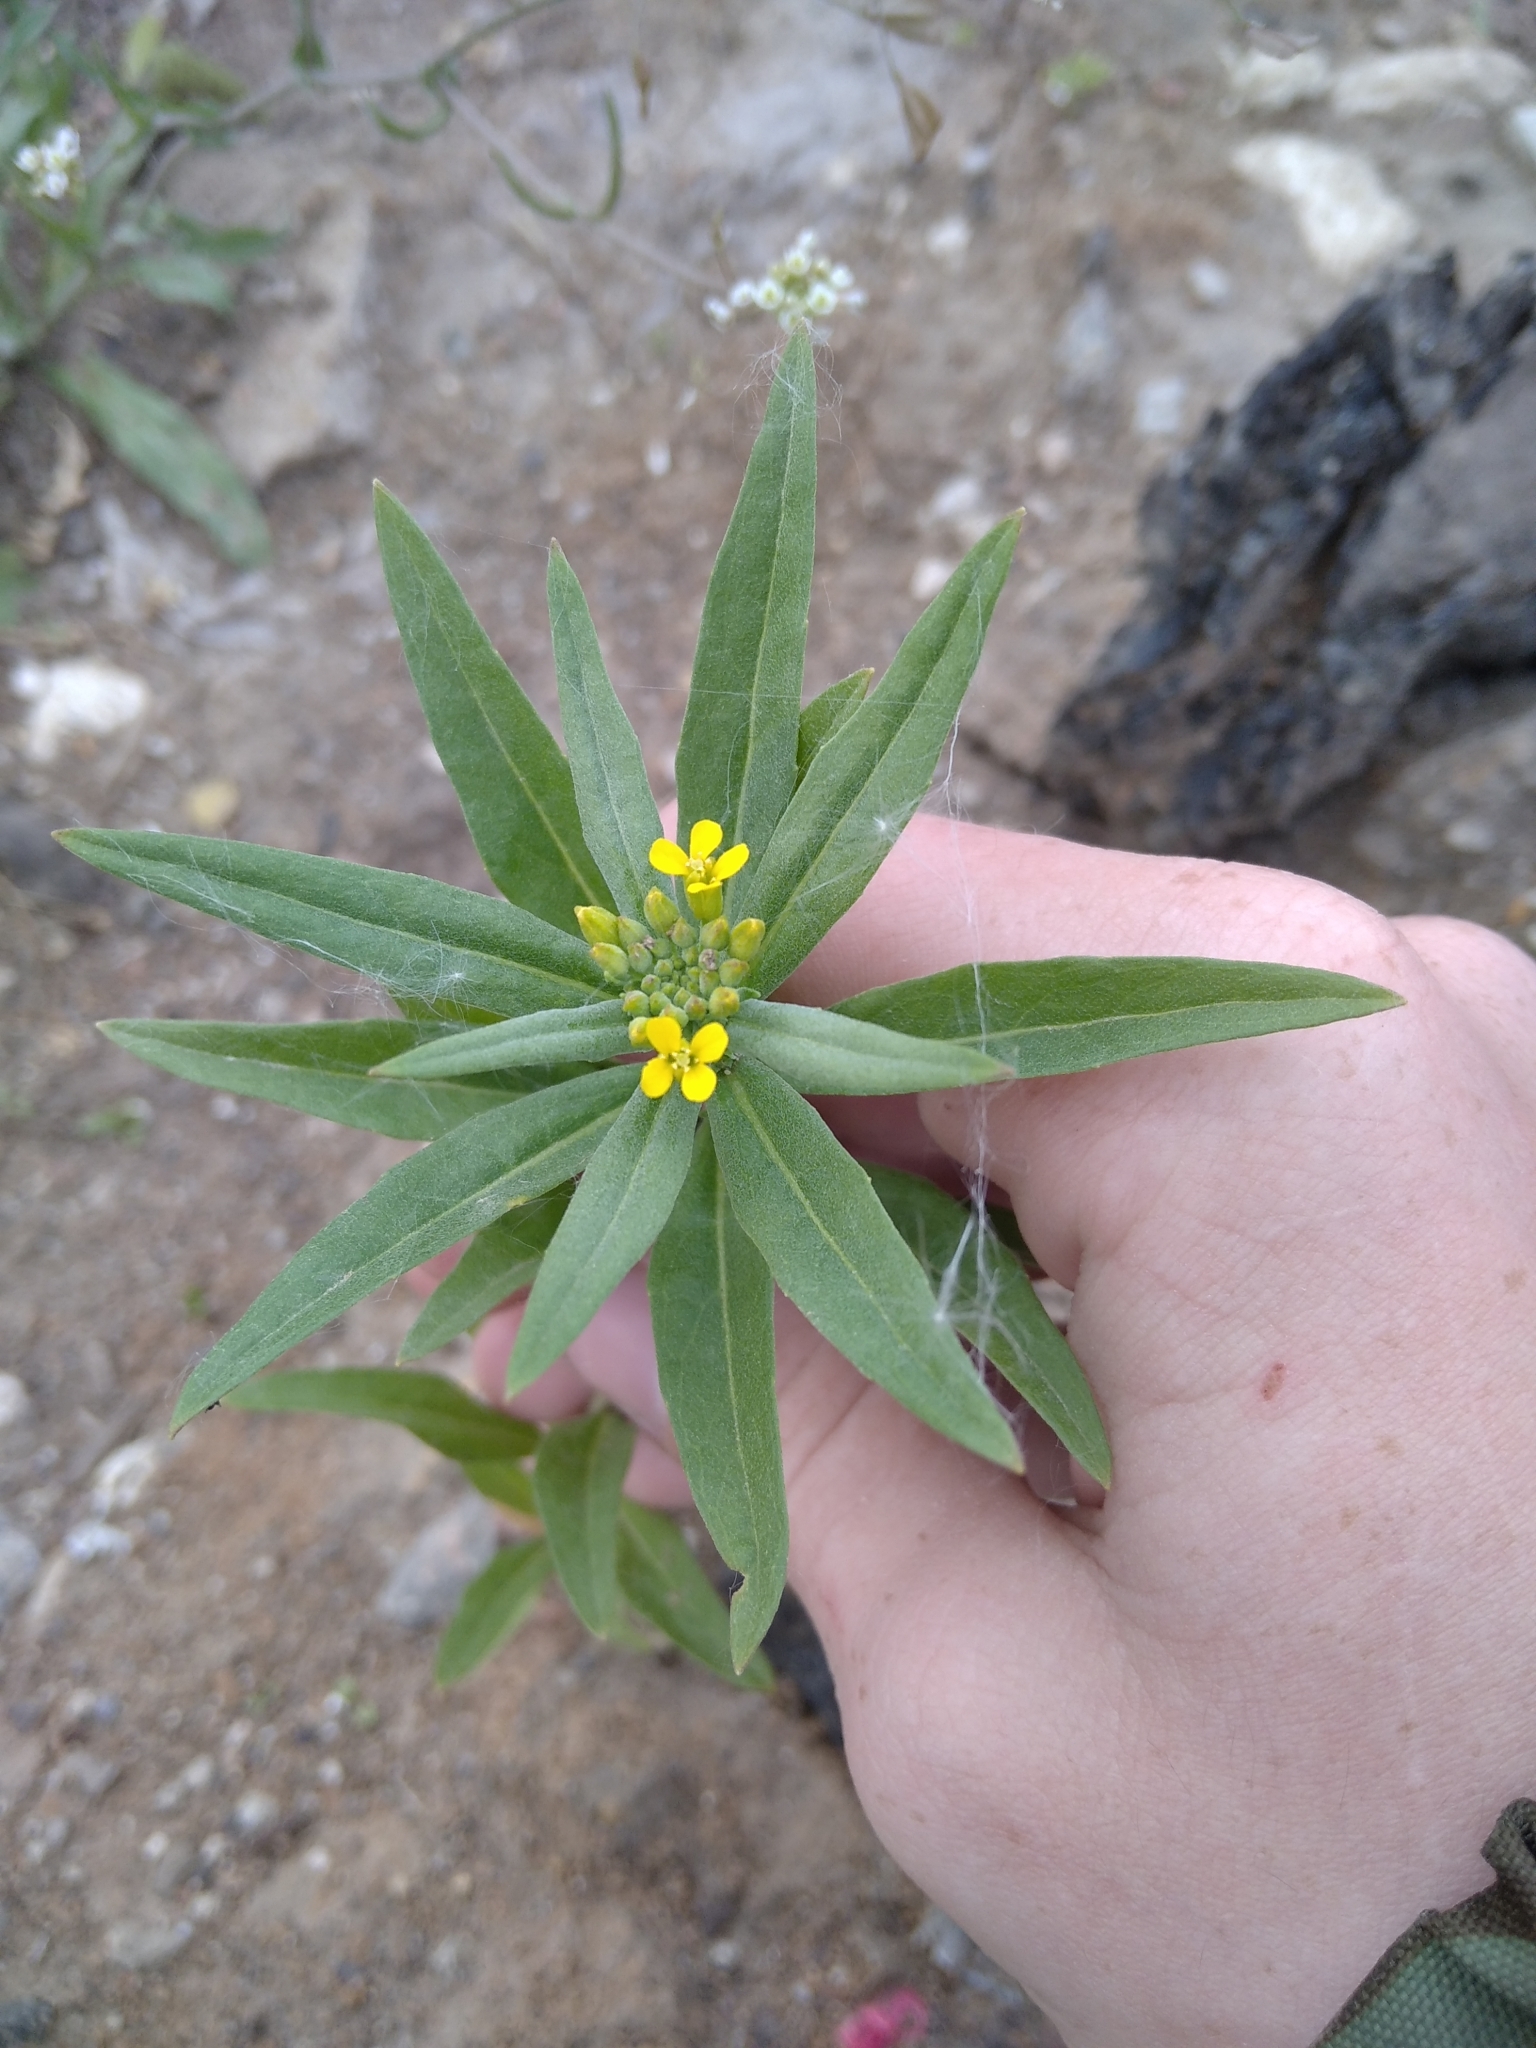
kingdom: Plantae
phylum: Tracheophyta
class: Magnoliopsida
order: Brassicales
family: Brassicaceae
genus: Erysimum
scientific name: Erysimum cheiranthoides
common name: Treacle mustard
